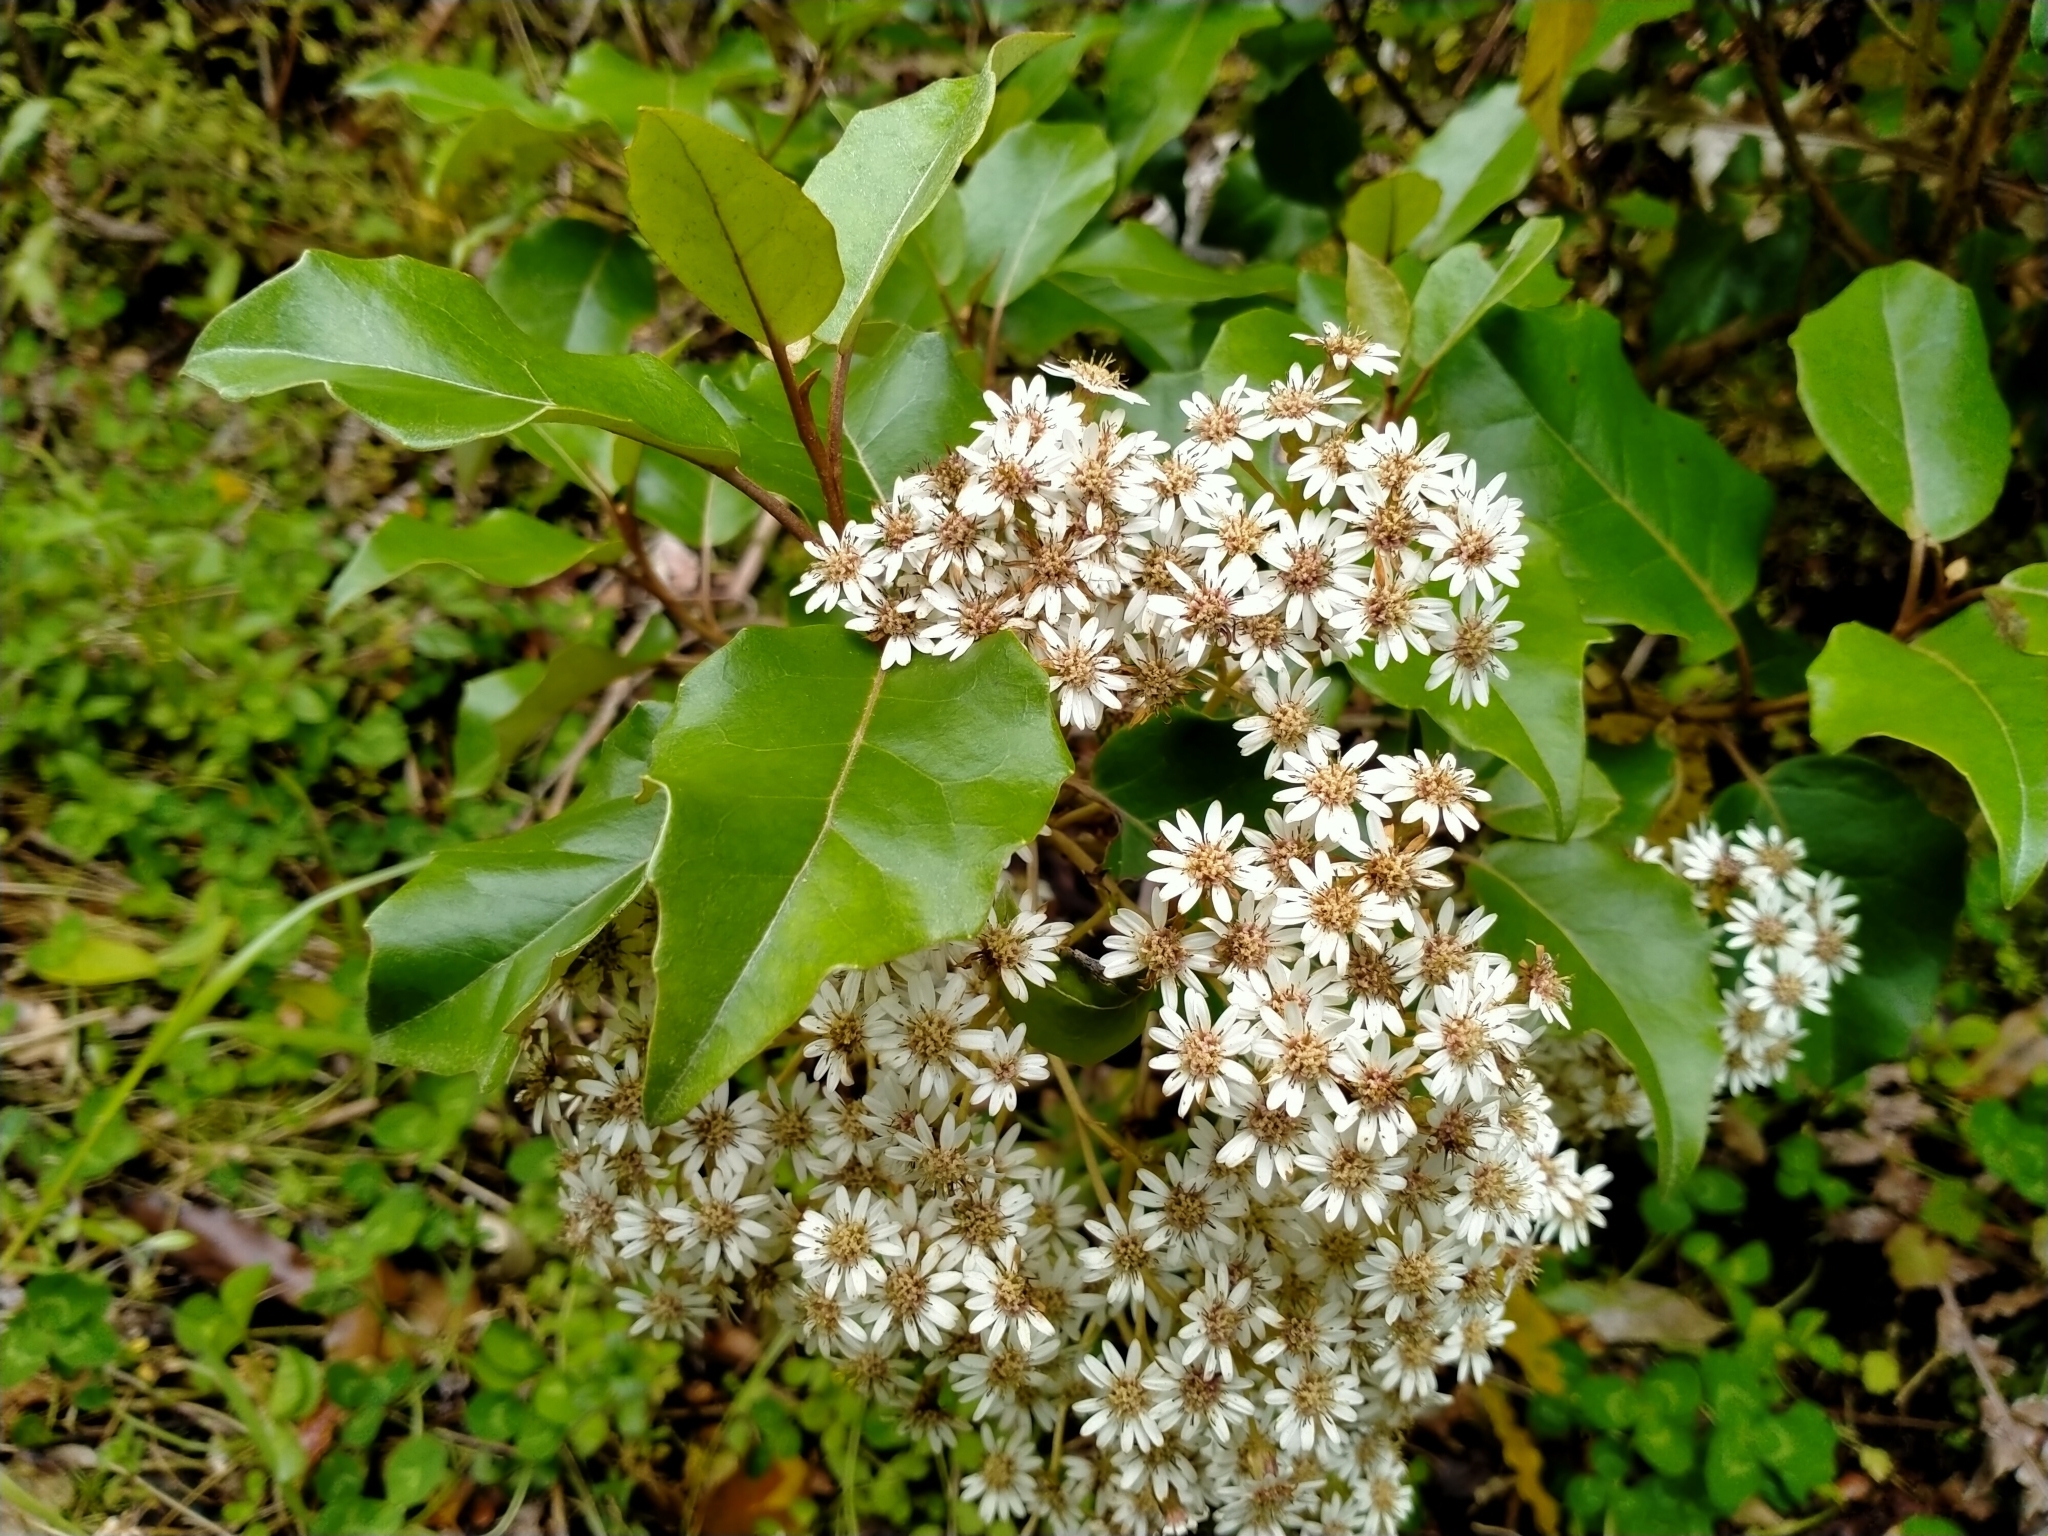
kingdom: Plantae
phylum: Tracheophyta
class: Magnoliopsida
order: Asterales
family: Asteraceae
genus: Olearia
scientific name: Olearia arborescens
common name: Glossy tree daisy
